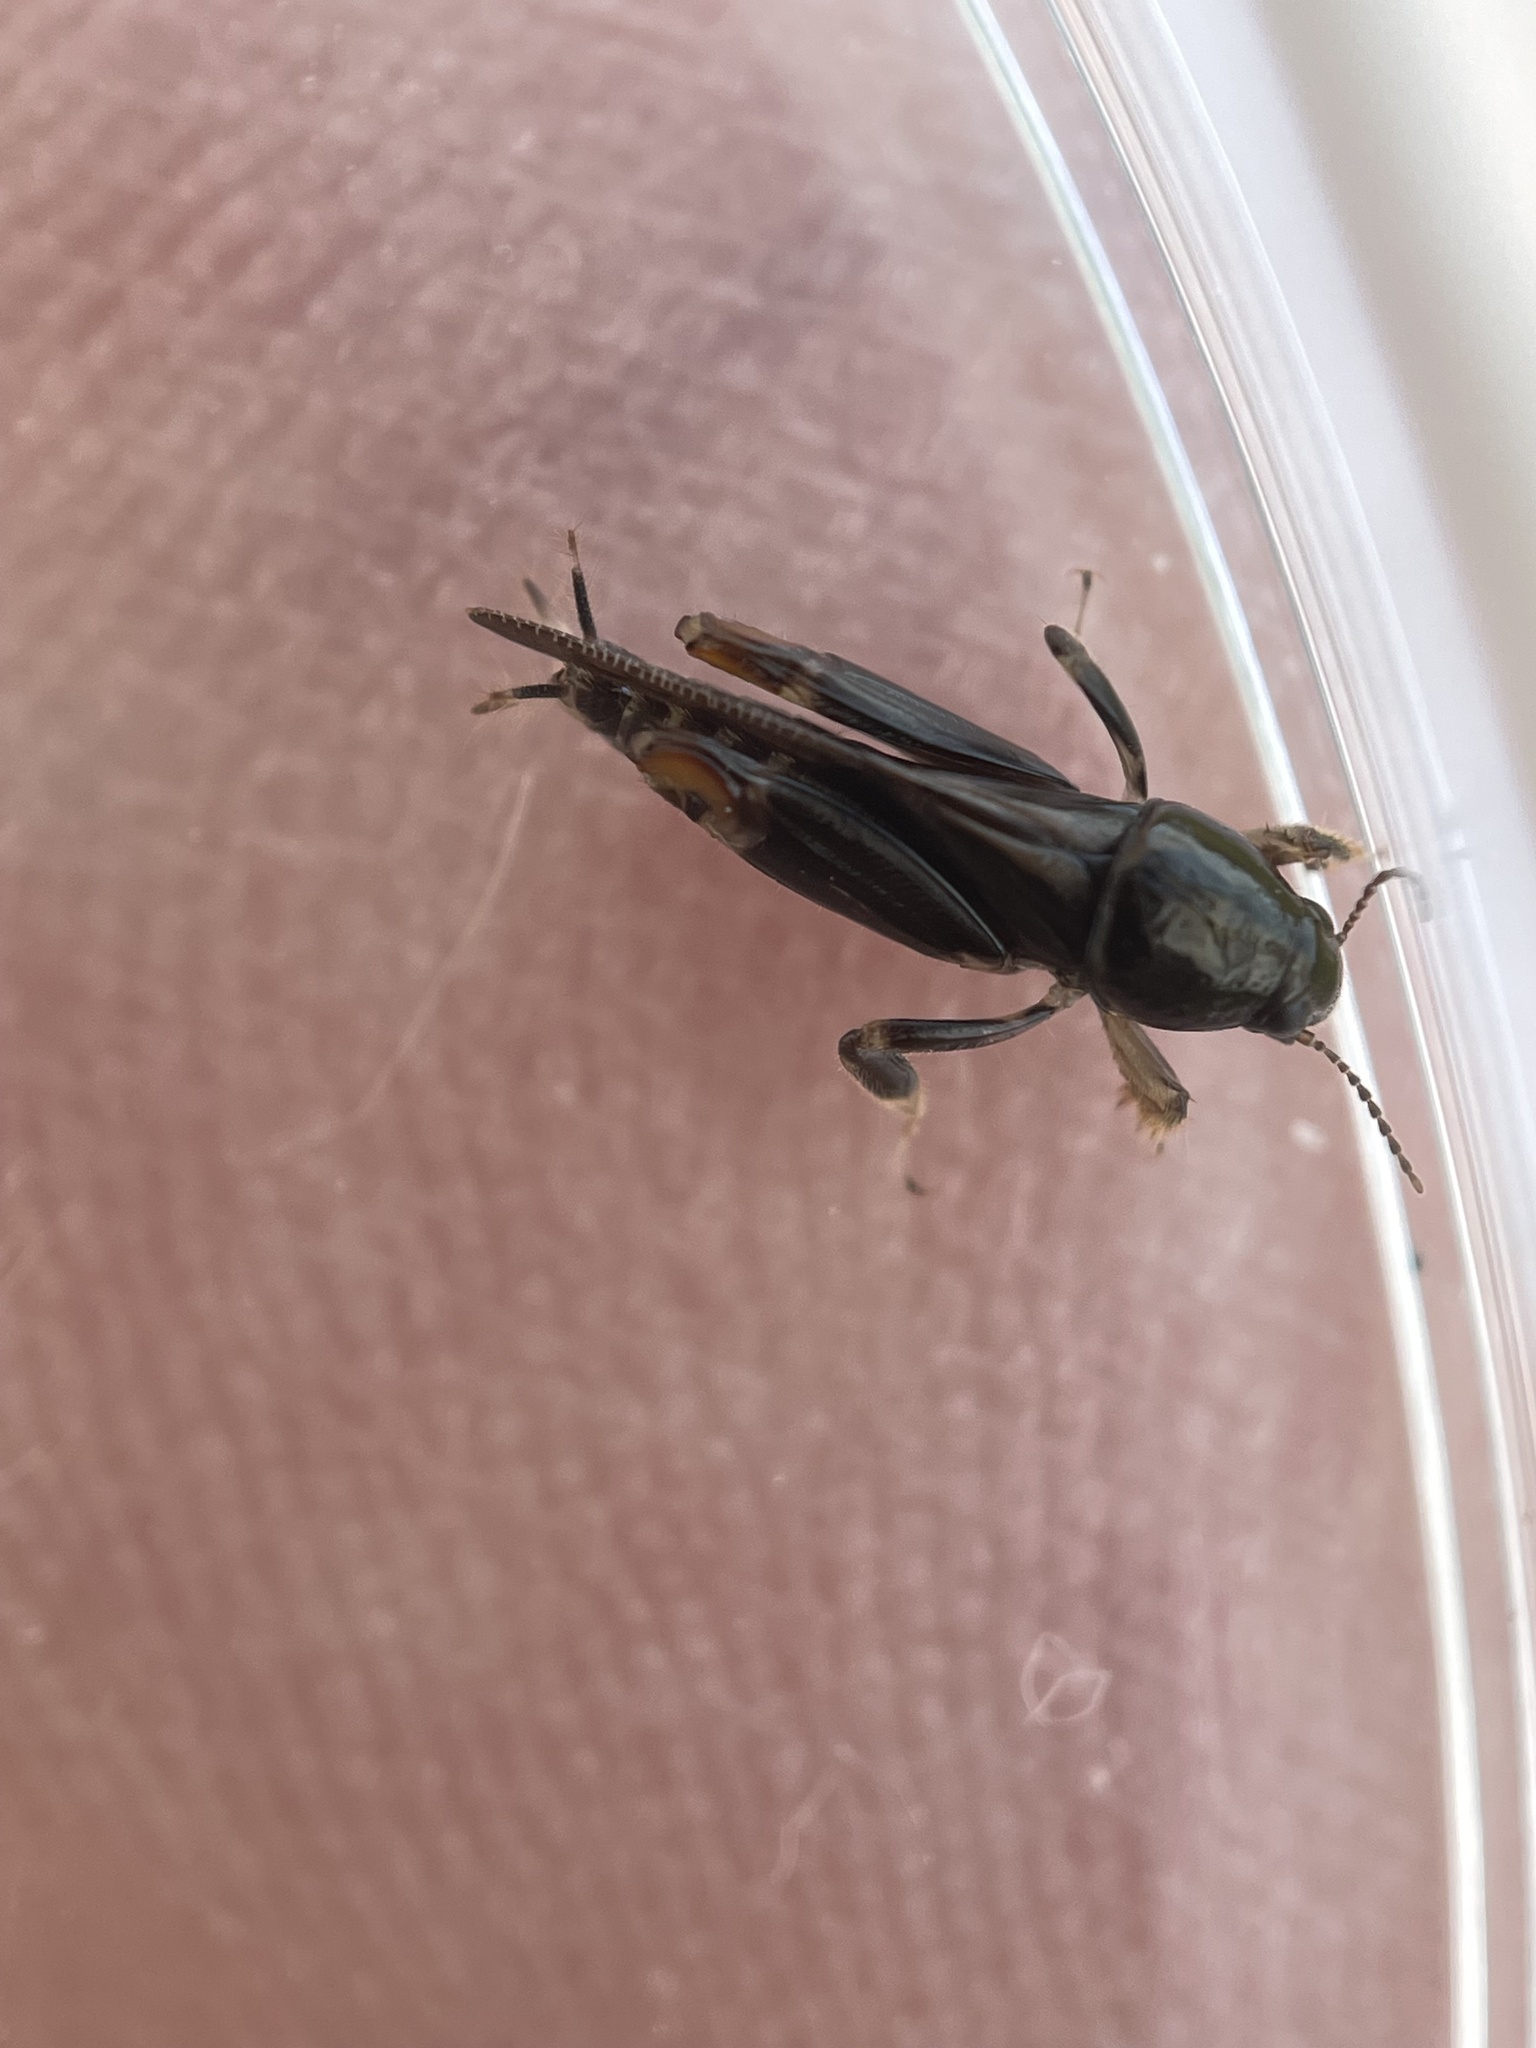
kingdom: Animalia
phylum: Arthropoda
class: Insecta
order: Orthoptera
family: Tridactylidae
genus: Neotridactylus
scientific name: Neotridactylus apicialis
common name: Larger pygmy locust
